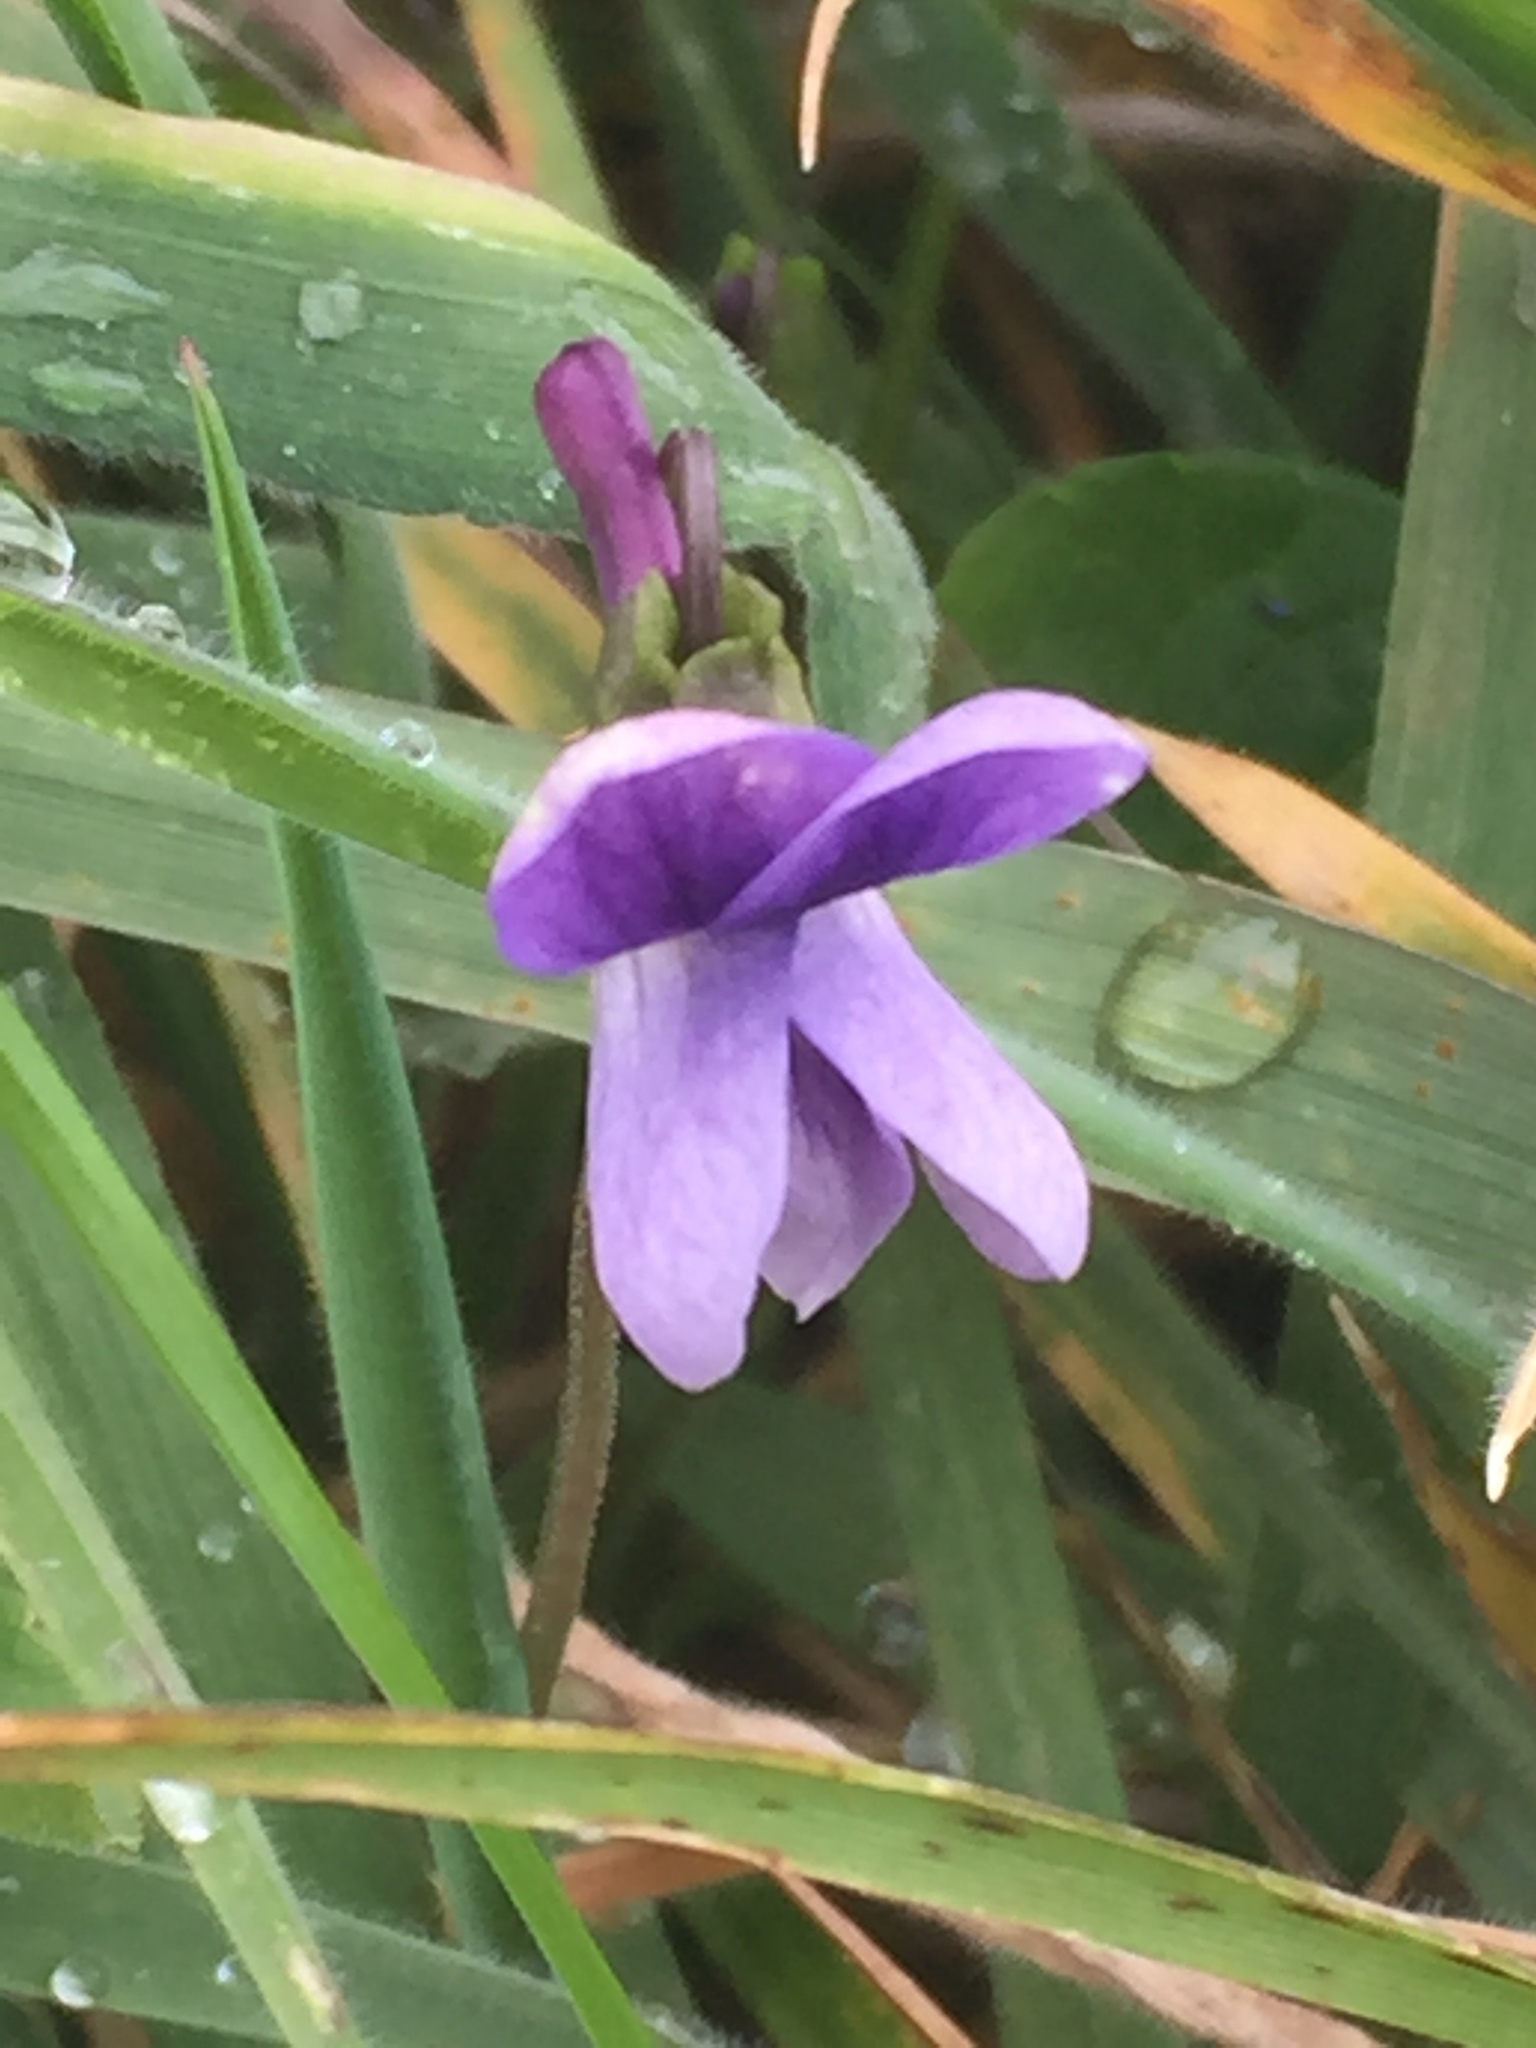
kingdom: Plantae
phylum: Tracheophyta
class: Magnoliopsida
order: Malpighiales
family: Violaceae
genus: Viola
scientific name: Viola adunca
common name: Sand violet
